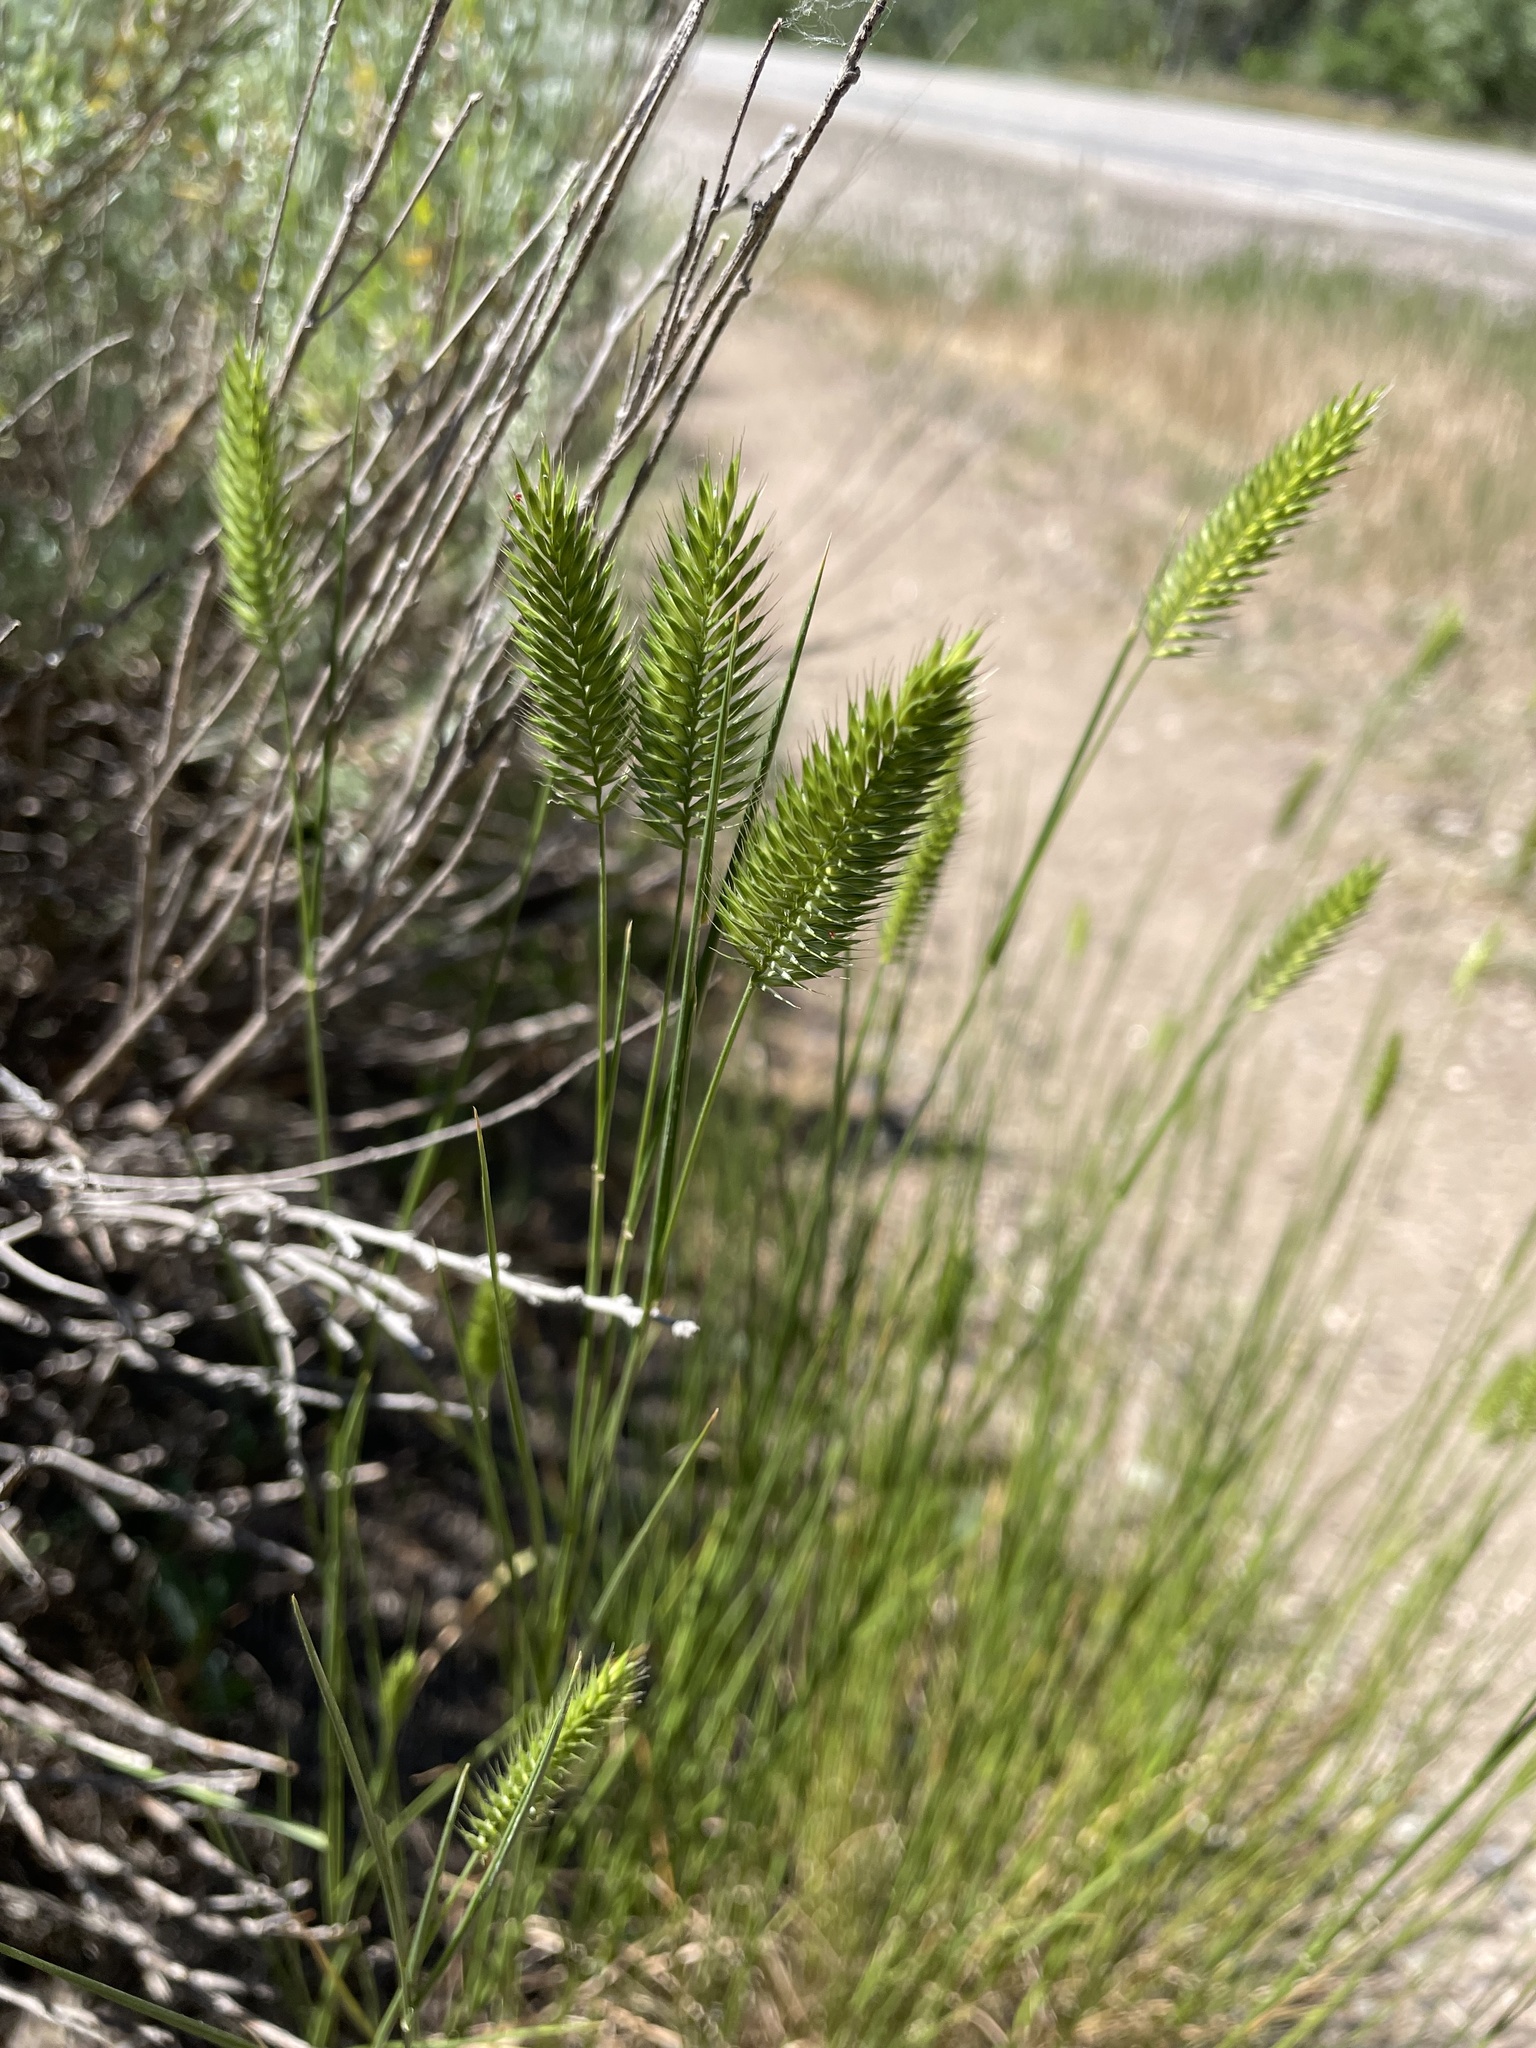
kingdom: Plantae
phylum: Tracheophyta
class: Liliopsida
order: Poales
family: Poaceae
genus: Agropyron
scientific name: Agropyron cristatum
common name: Crested wheatgrass
